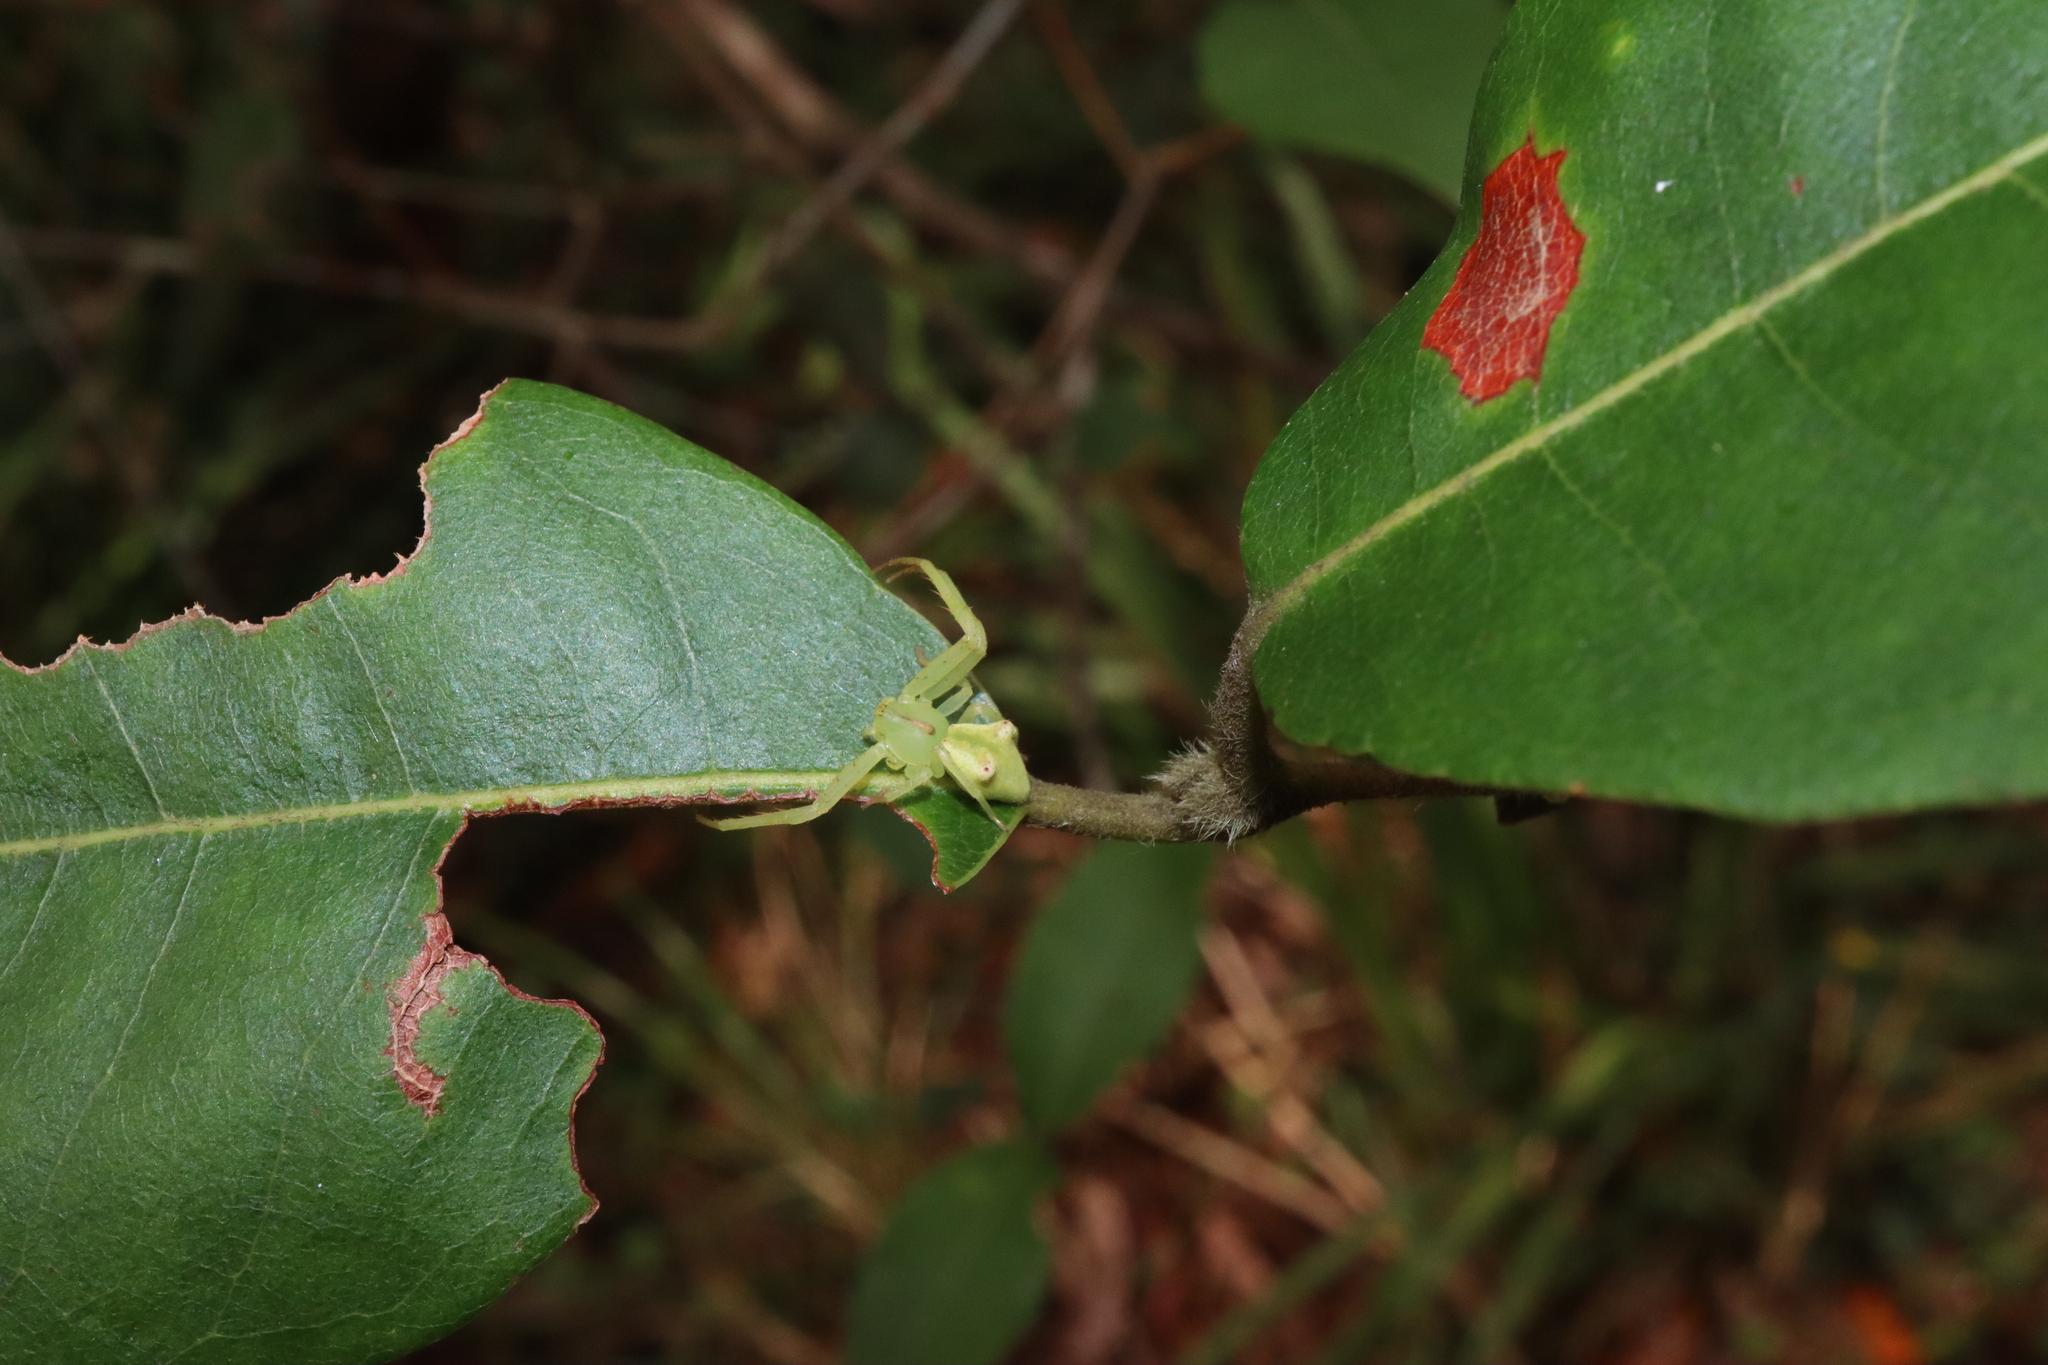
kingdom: Animalia
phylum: Arthropoda
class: Arachnida
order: Araneae
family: Thomisidae
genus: Sidymella
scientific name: Sidymella rubrosignata
